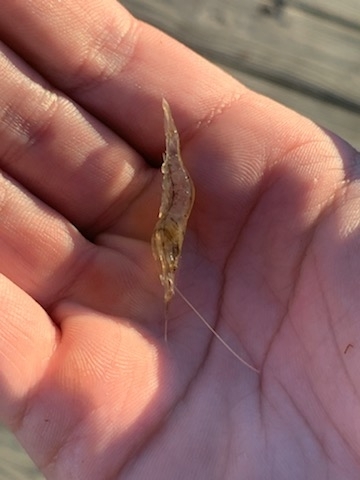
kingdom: Animalia
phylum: Arthropoda
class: Malacostraca
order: Decapoda
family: Palaemonidae
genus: Palaemon
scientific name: Palaemon paludosus
